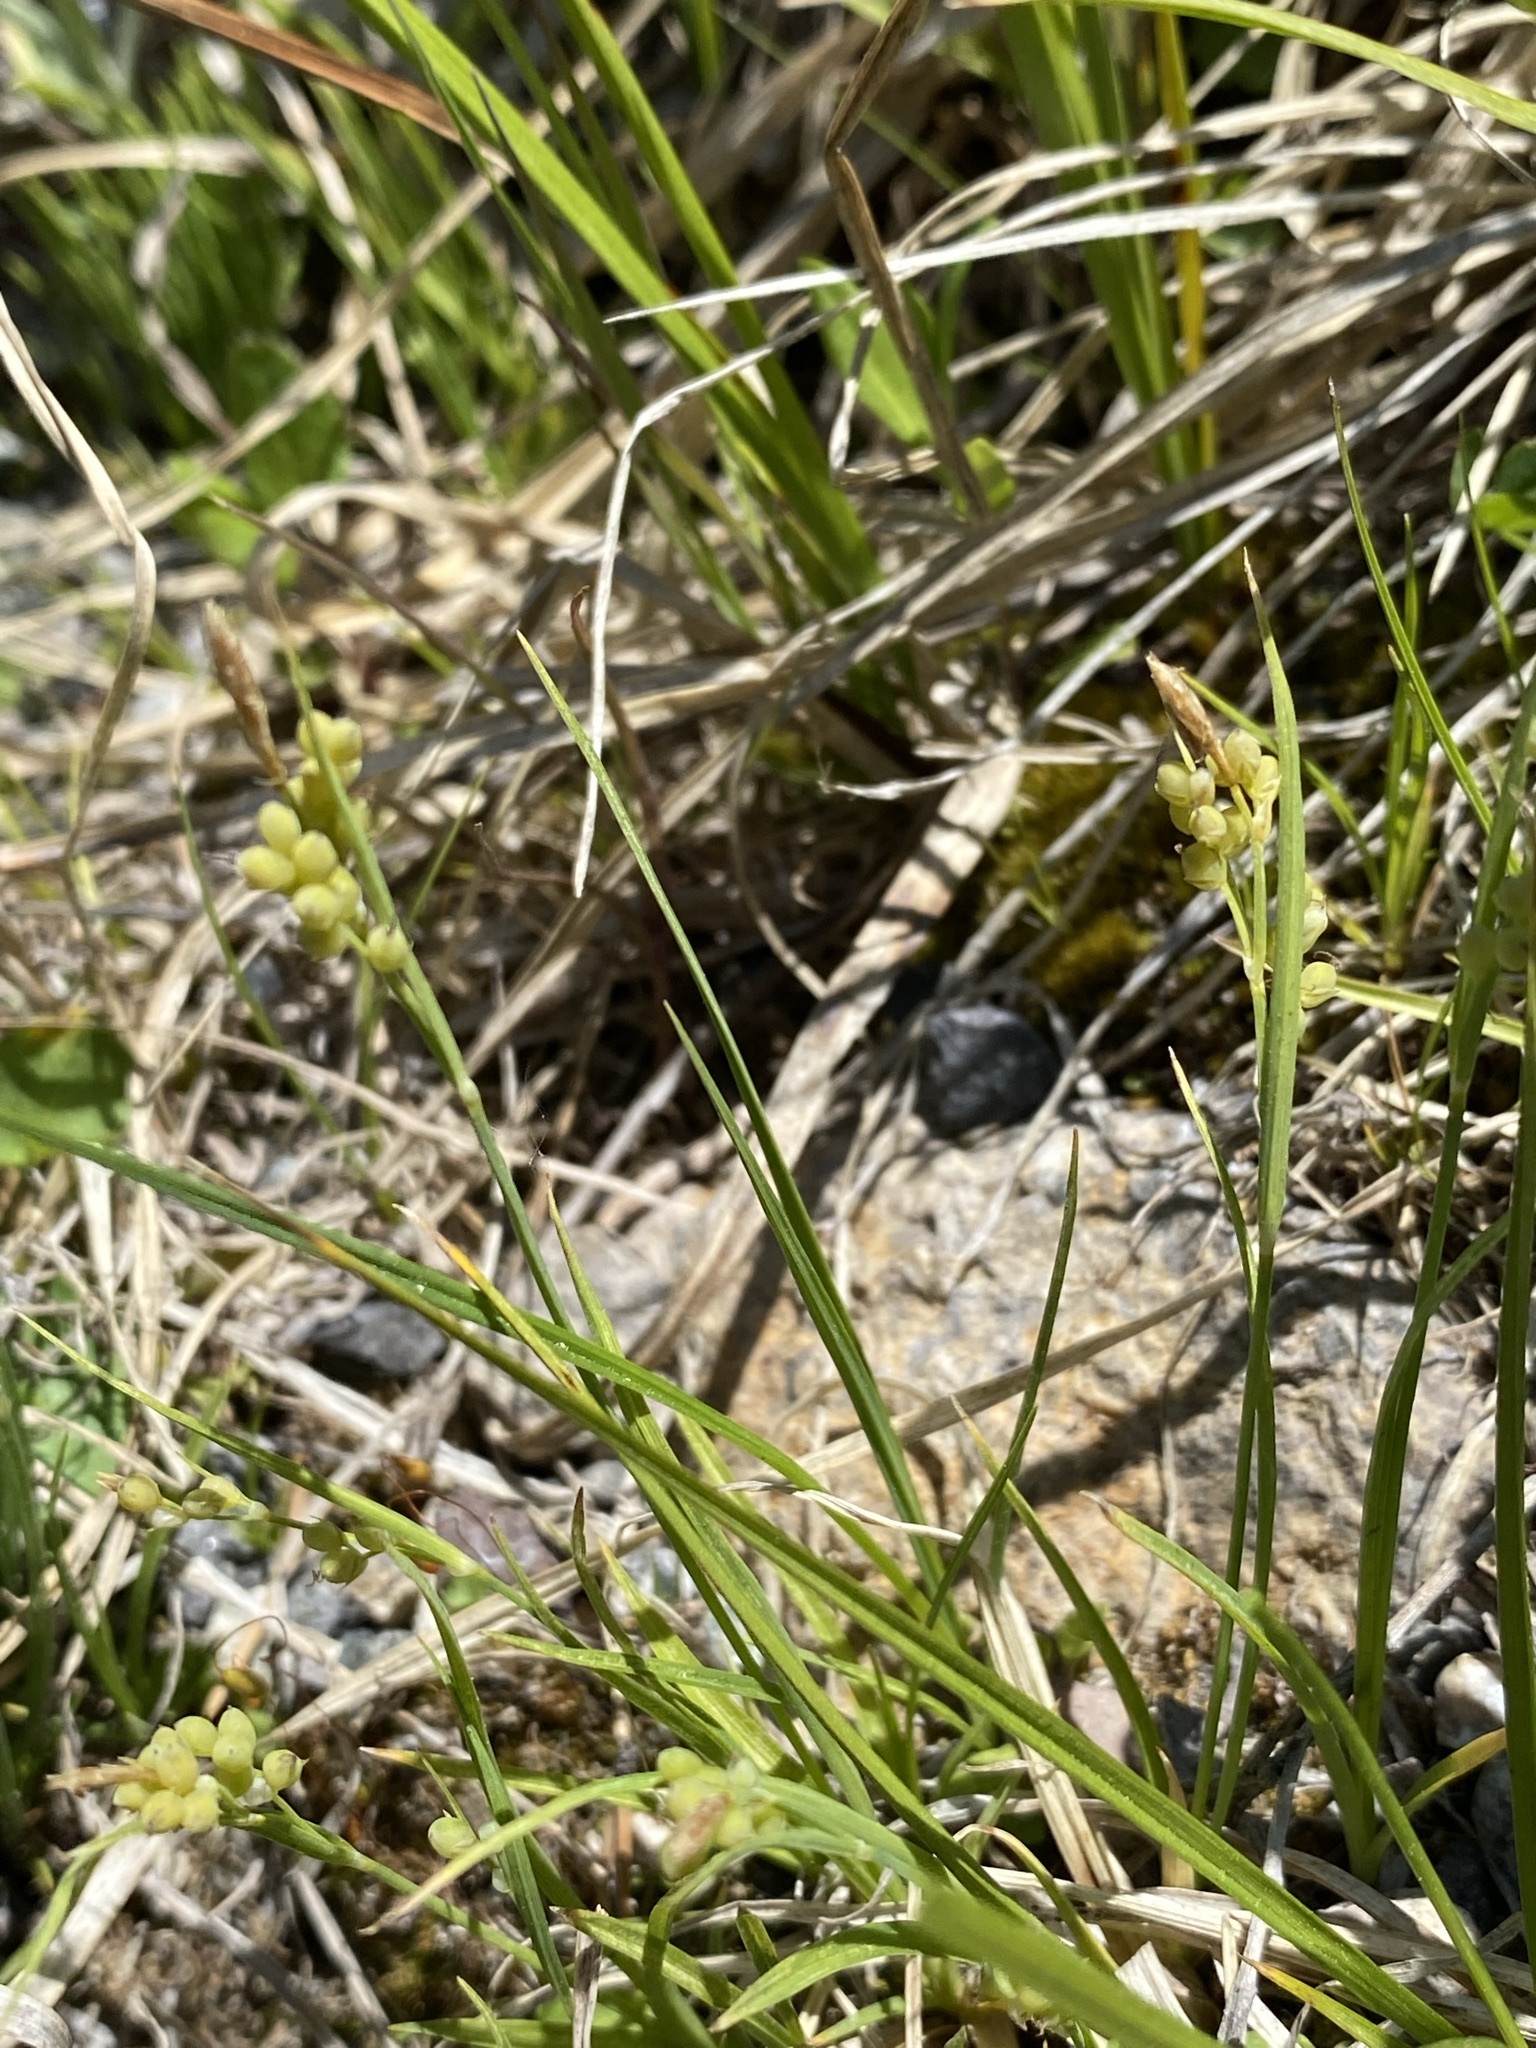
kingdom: Plantae
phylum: Tracheophyta
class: Liliopsida
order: Poales
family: Cyperaceae
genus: Carex
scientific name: Carex aurea
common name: Golden sedge
